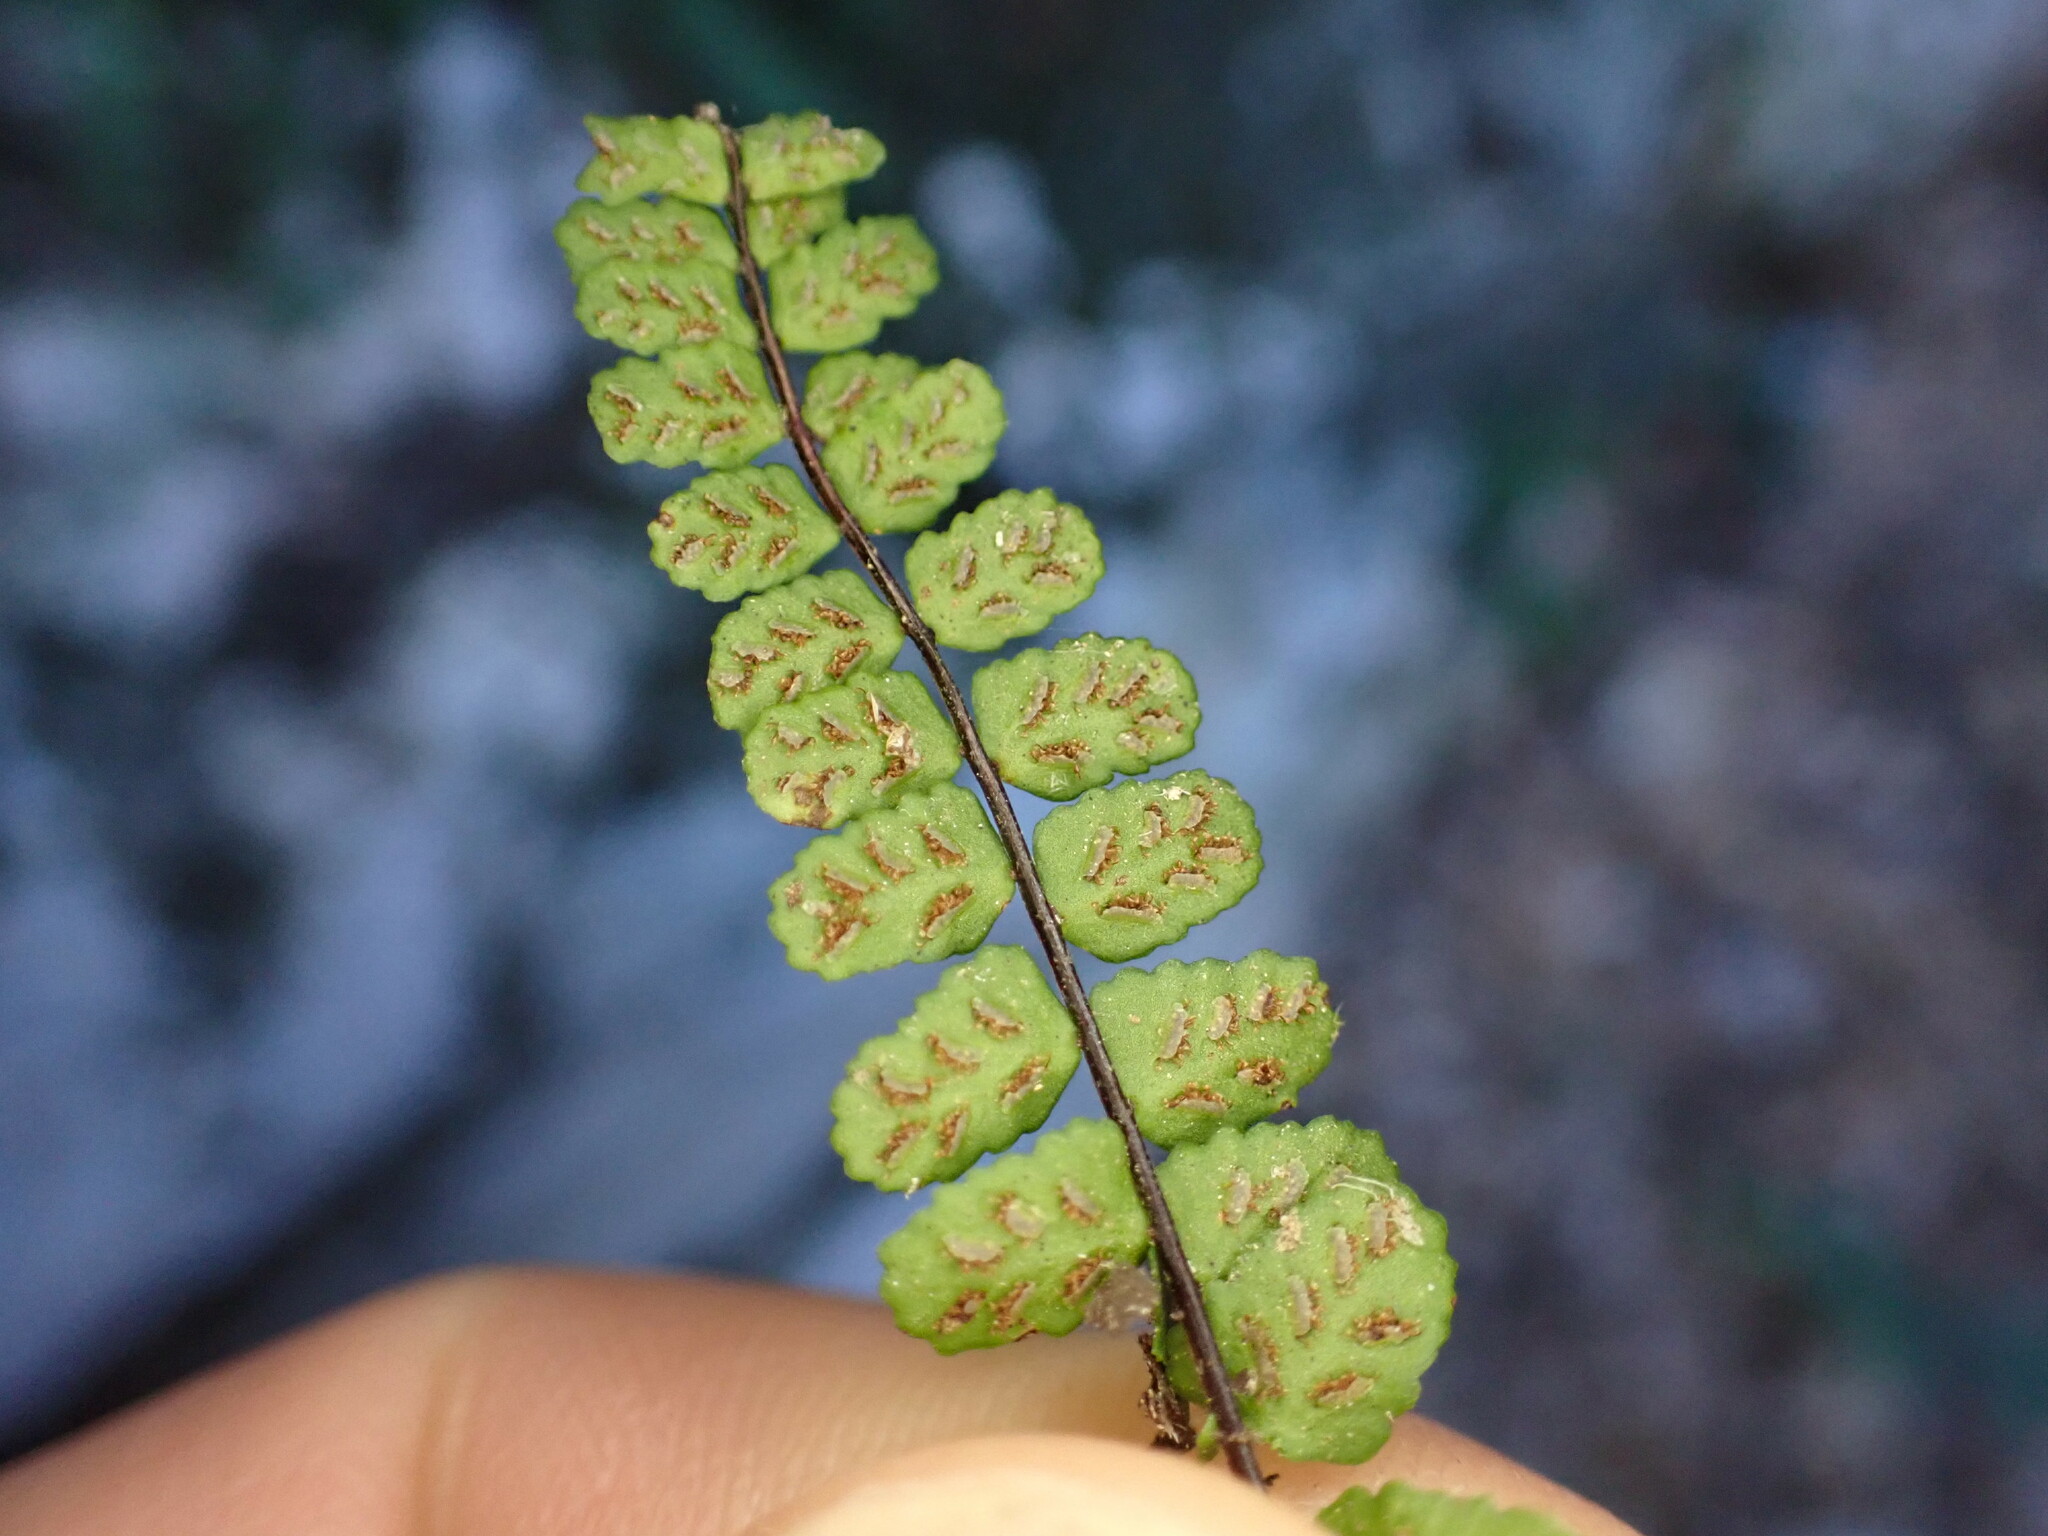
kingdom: Plantae
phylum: Tracheophyta
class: Polypodiopsida
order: Polypodiales
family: Aspleniaceae
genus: Asplenium
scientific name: Asplenium trichomanes
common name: Maidenhair spleenwort
